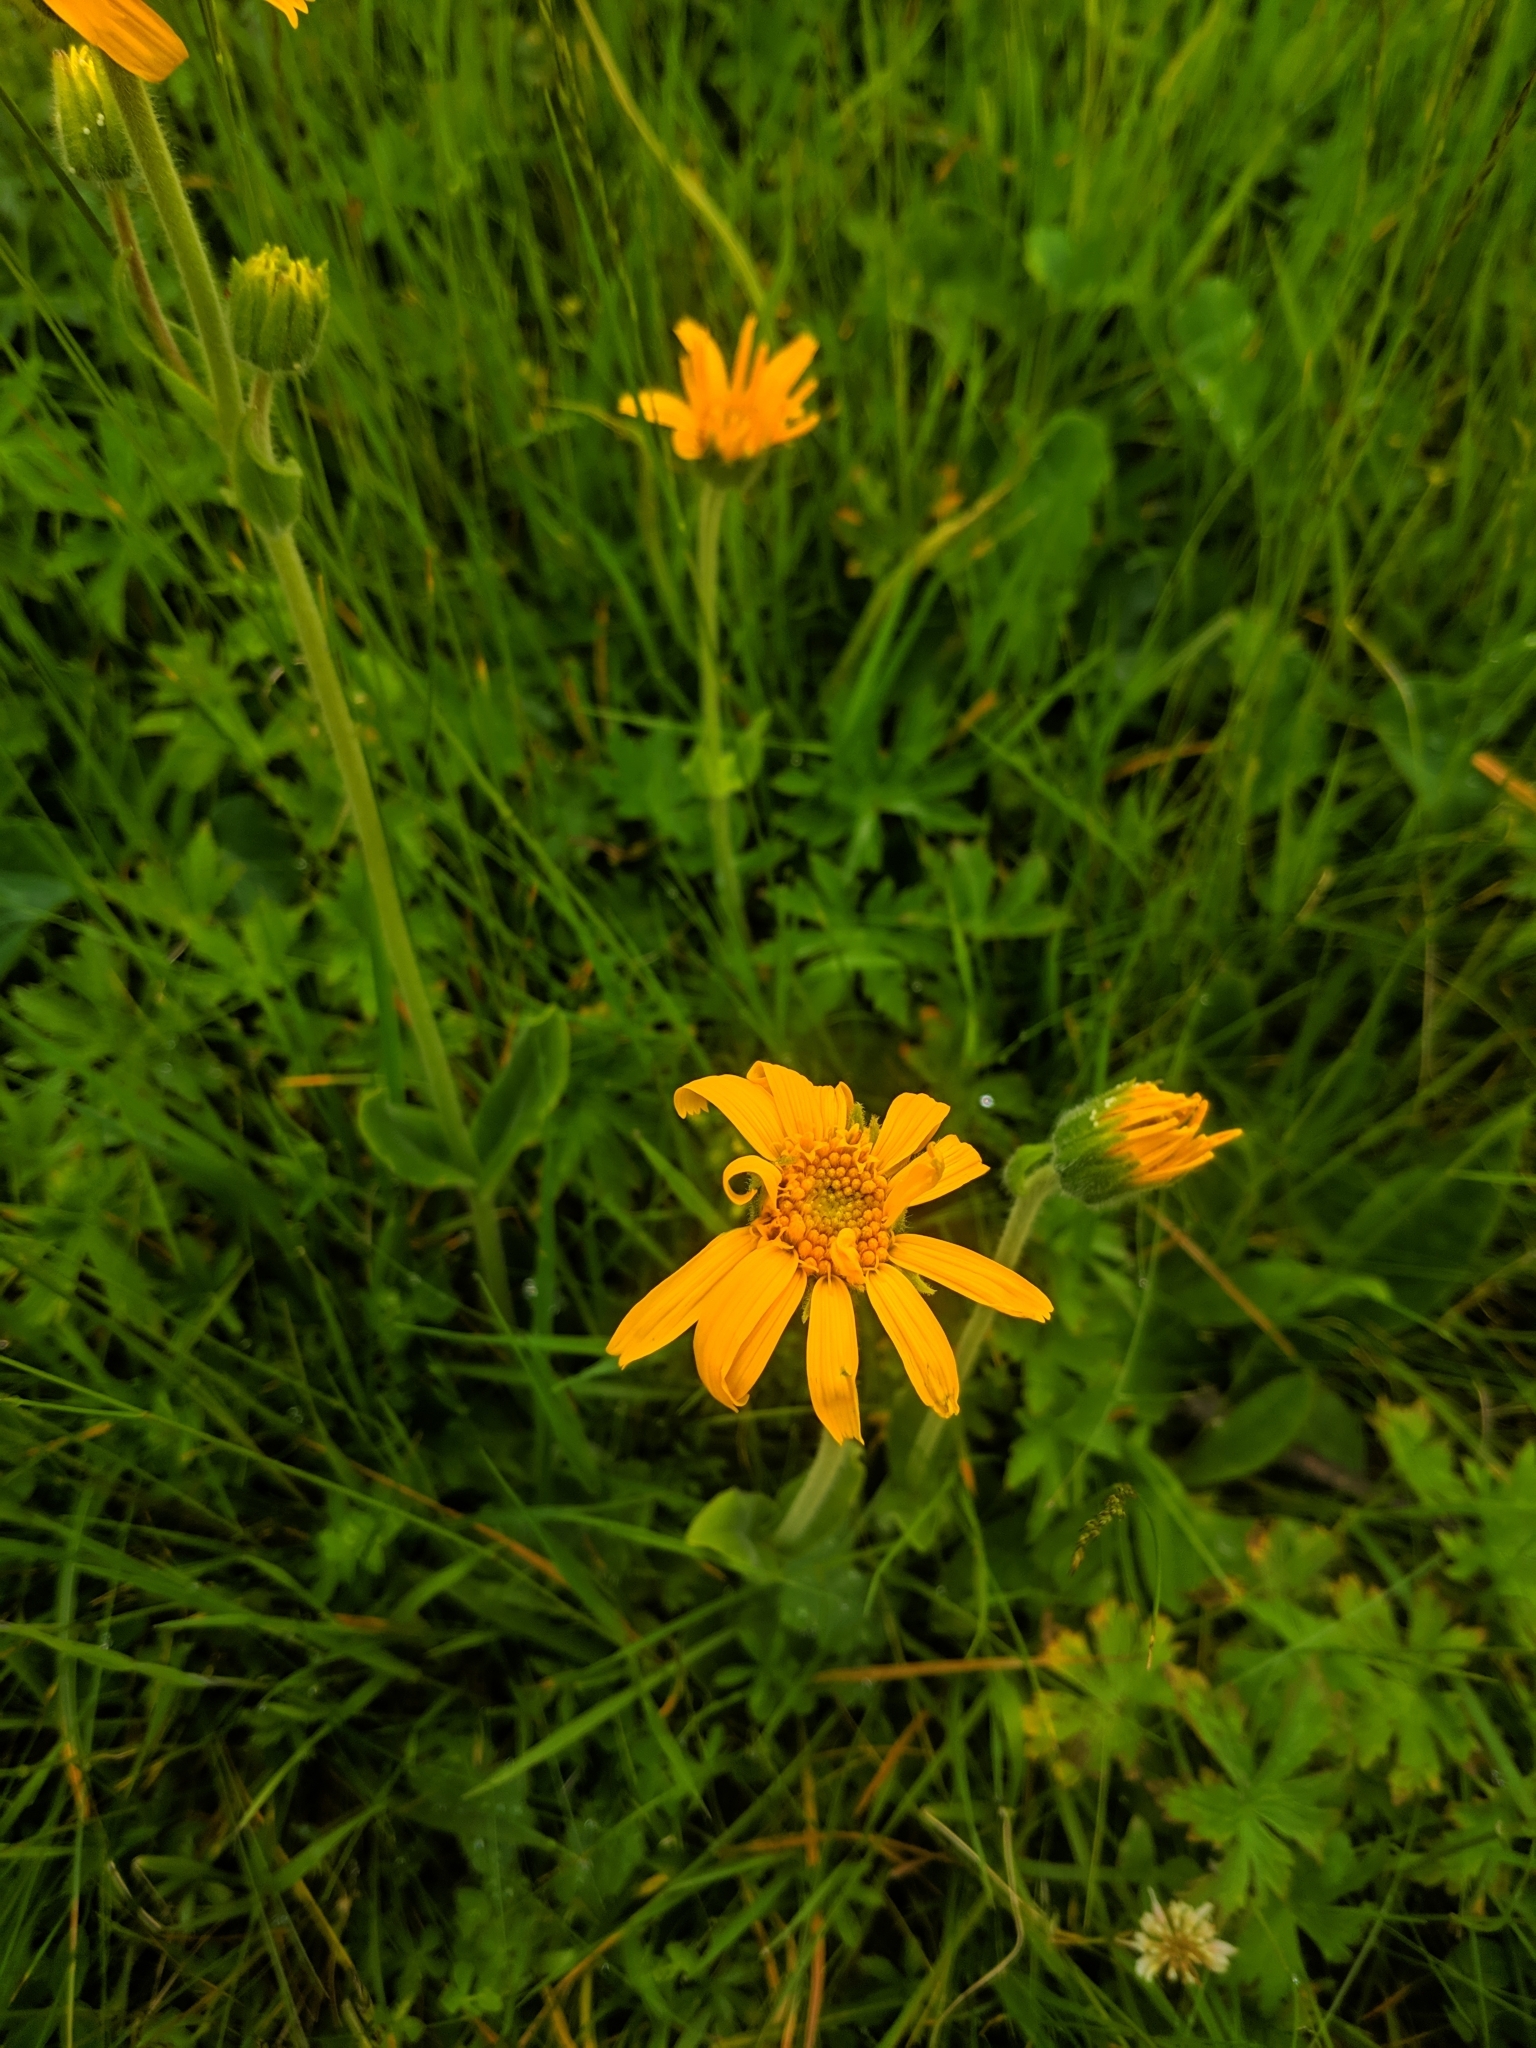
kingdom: Plantae
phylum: Tracheophyta
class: Magnoliopsida
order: Asterales
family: Asteraceae
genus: Arnica
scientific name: Arnica montana
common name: Leopard's bane
